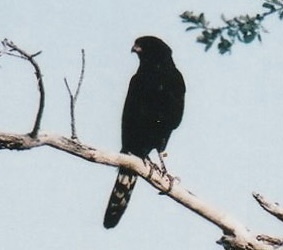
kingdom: Animalia
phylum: Chordata
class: Aves
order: Accipitriformes
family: Accipitridae
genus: Micronisus
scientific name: Micronisus gabar
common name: Gabar goshawk
